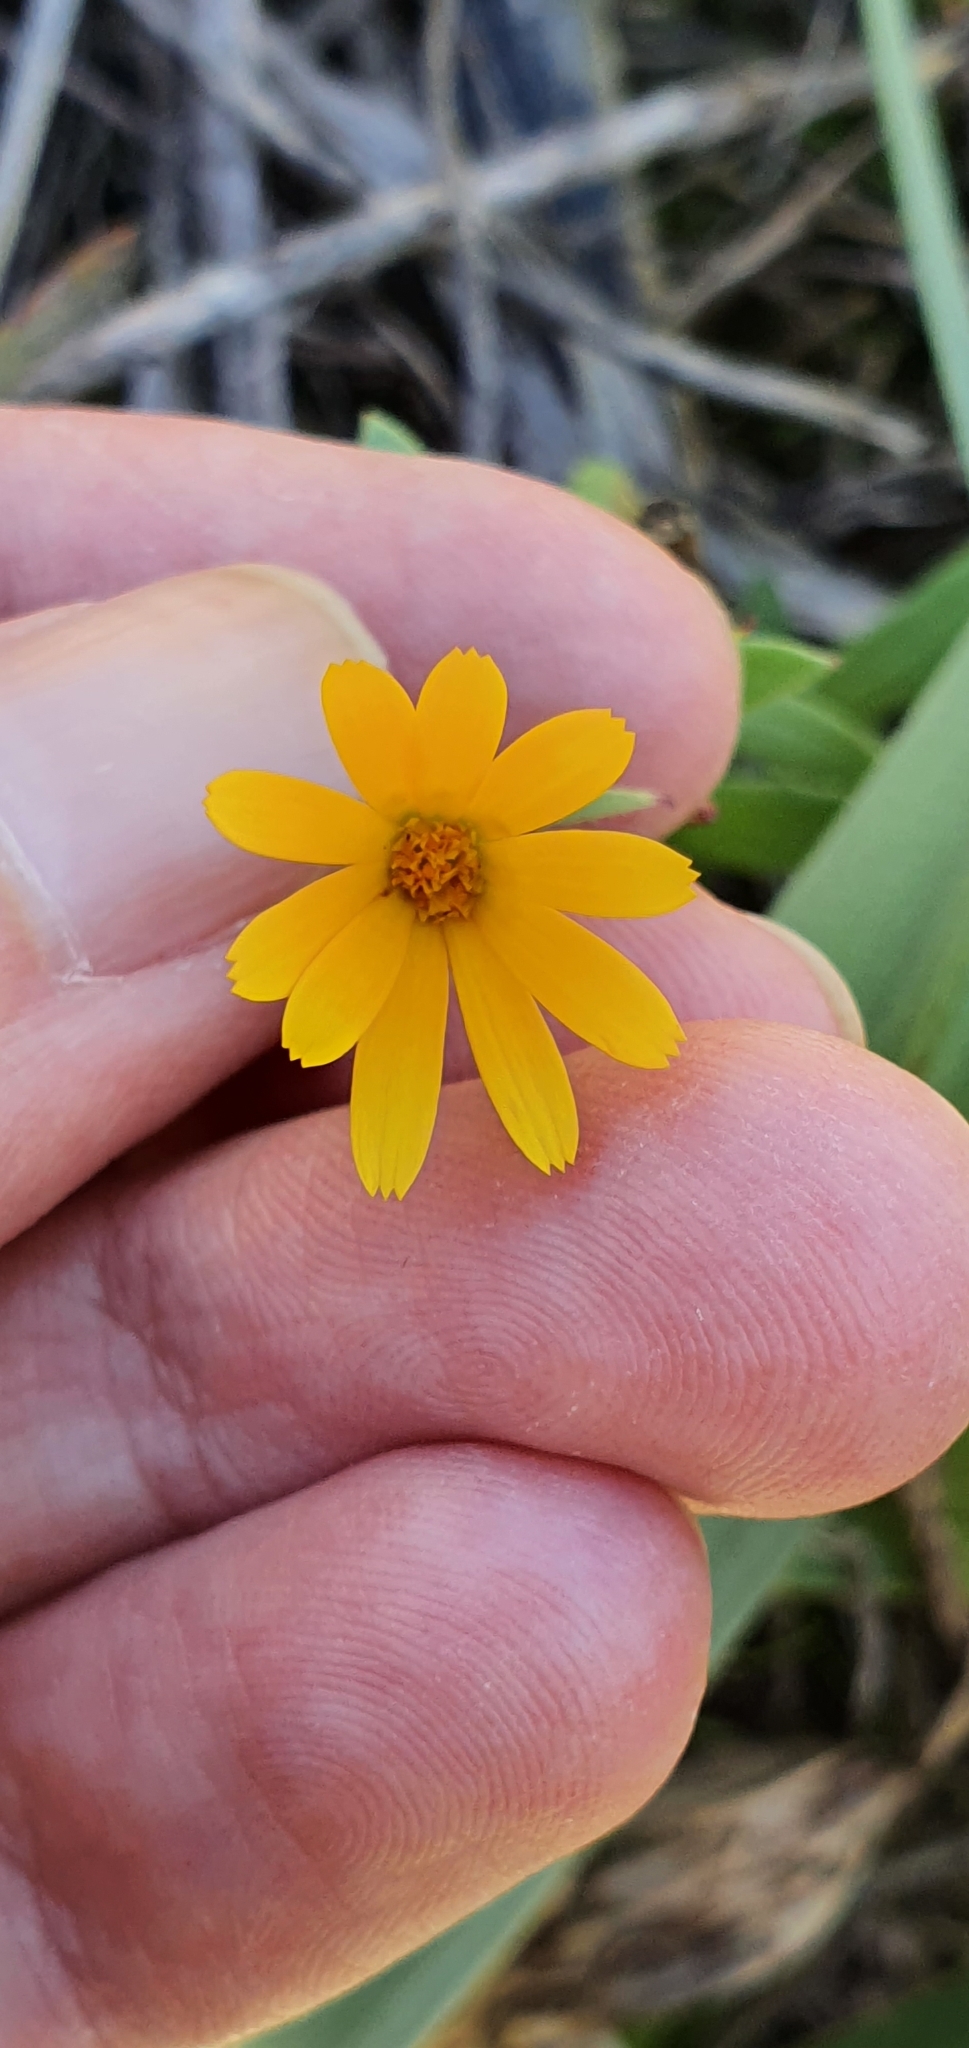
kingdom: Plantae
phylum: Tracheophyta
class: Magnoliopsida
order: Asterales
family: Asteraceae
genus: Calendula
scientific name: Calendula arvensis
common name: Field marigold
